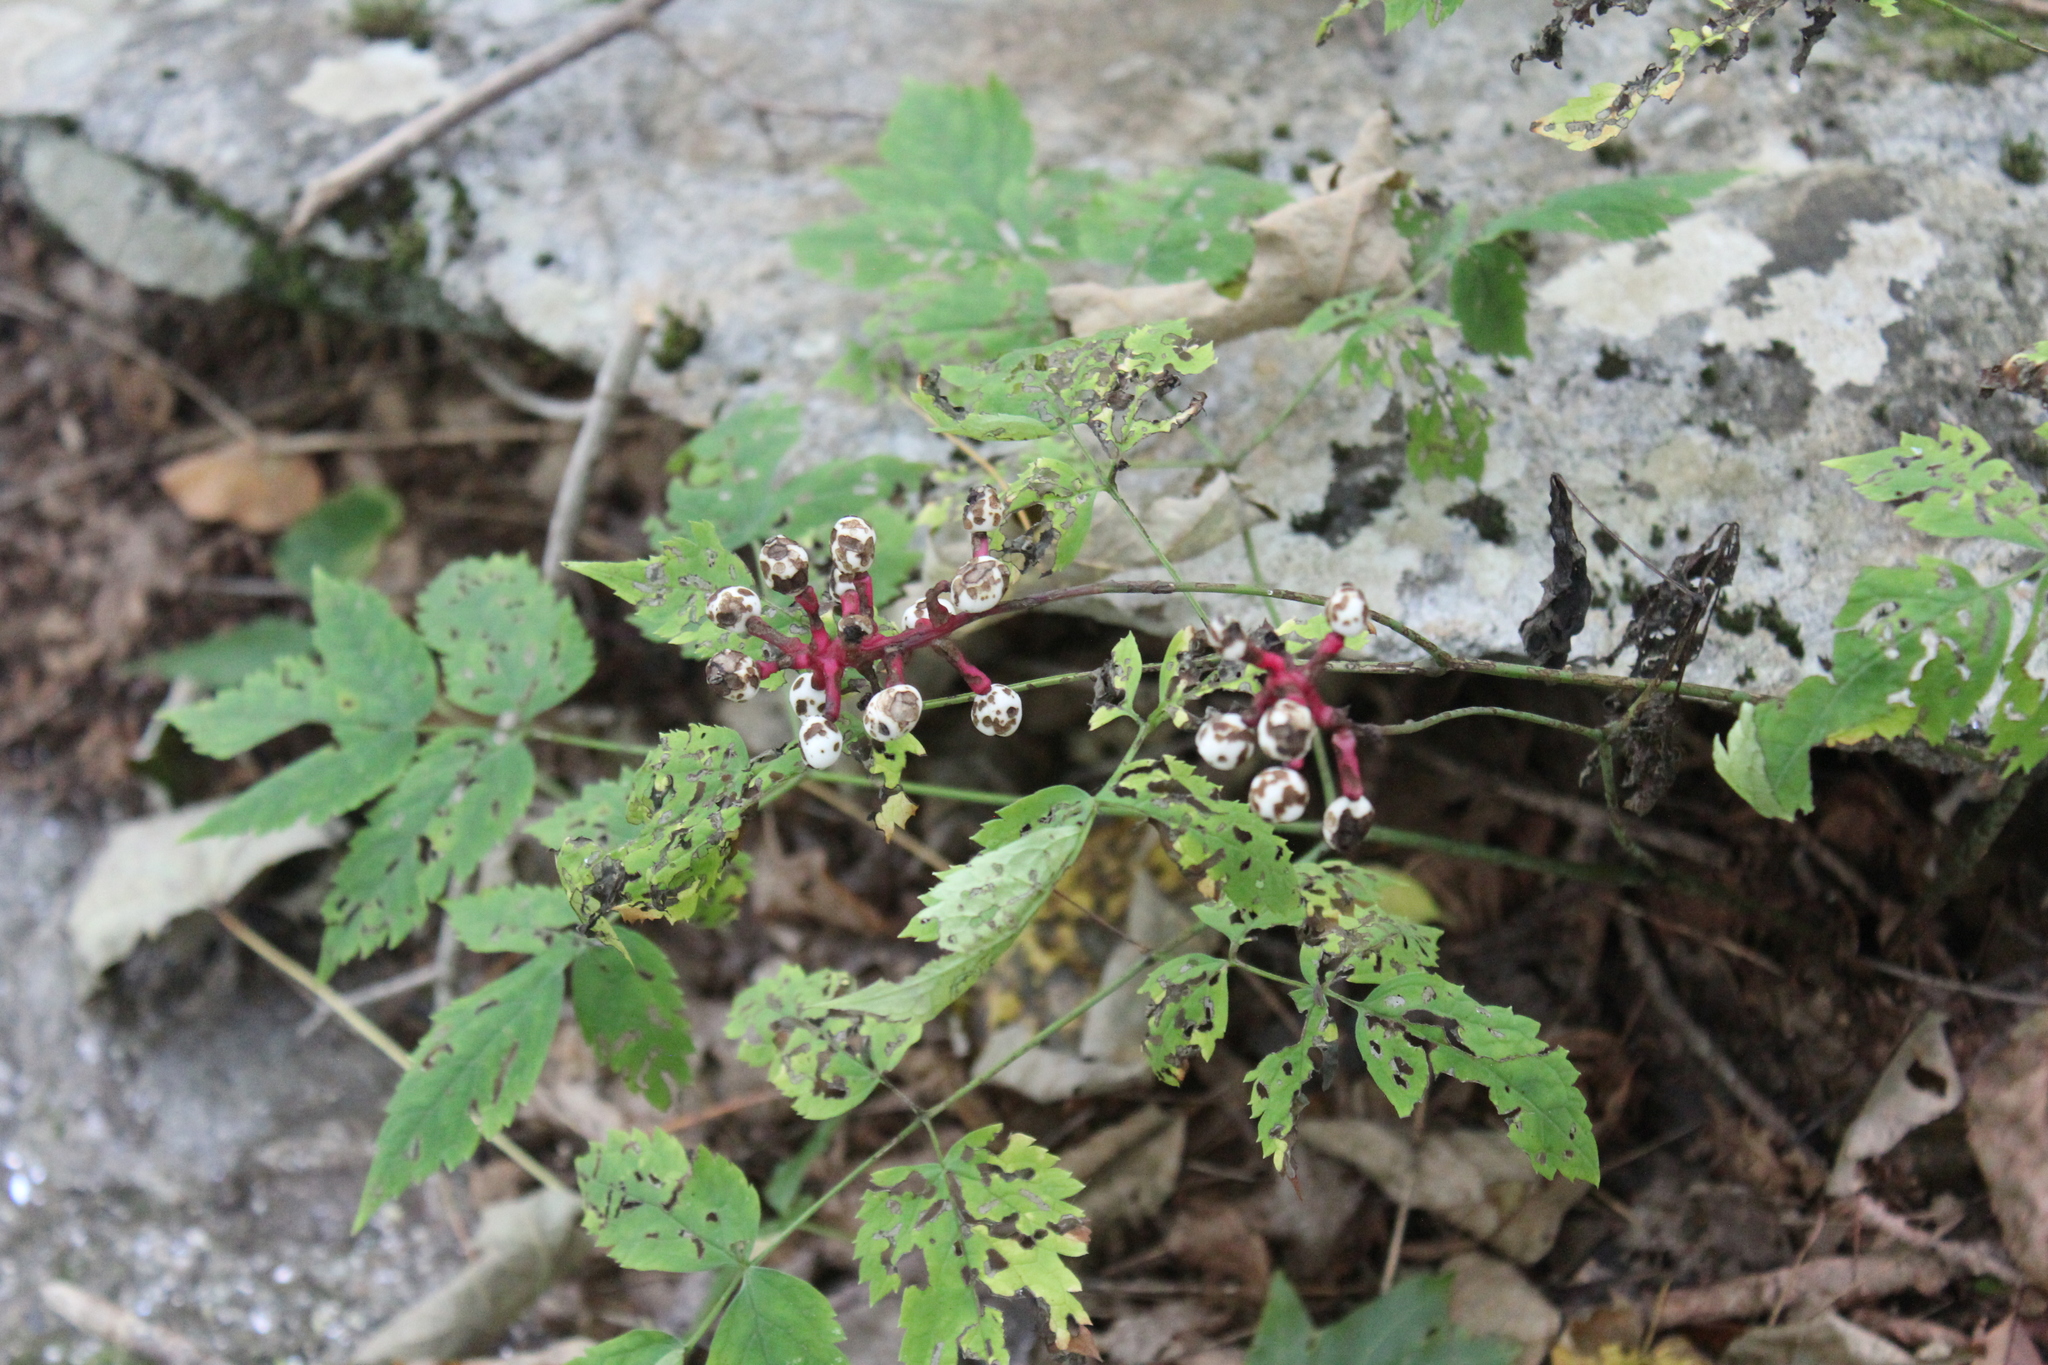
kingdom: Plantae
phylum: Tracheophyta
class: Magnoliopsida
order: Ranunculales
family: Ranunculaceae
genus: Actaea
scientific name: Actaea pachypoda
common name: Doll's-eyes
